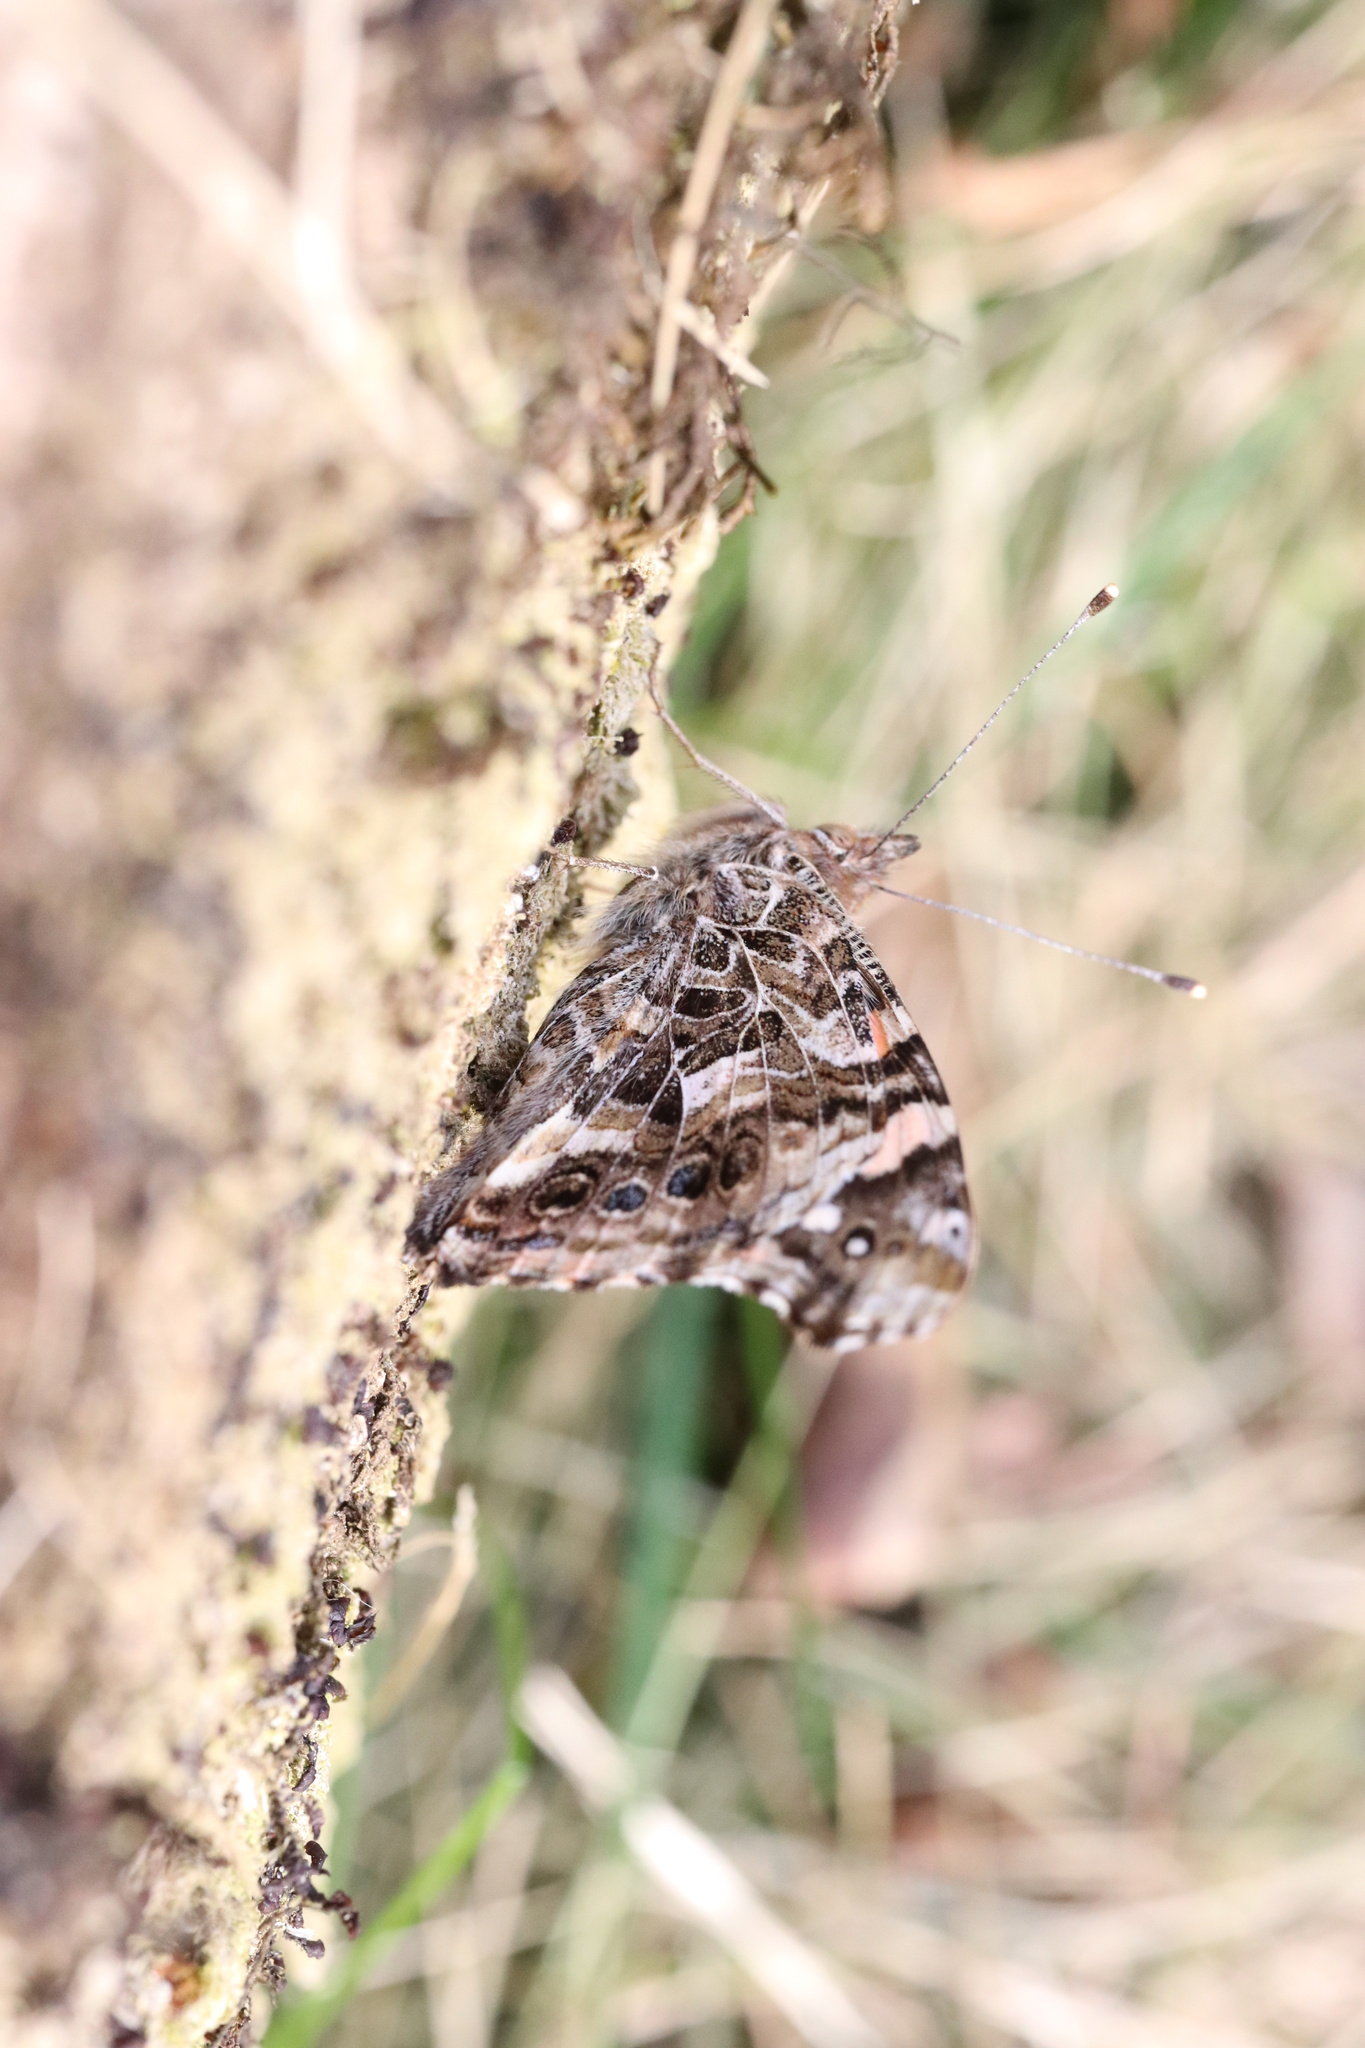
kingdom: Animalia
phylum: Arthropoda
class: Insecta
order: Lepidoptera
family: Nymphalidae
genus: Vanessa
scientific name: Vanessa carye
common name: Subtropical lady
